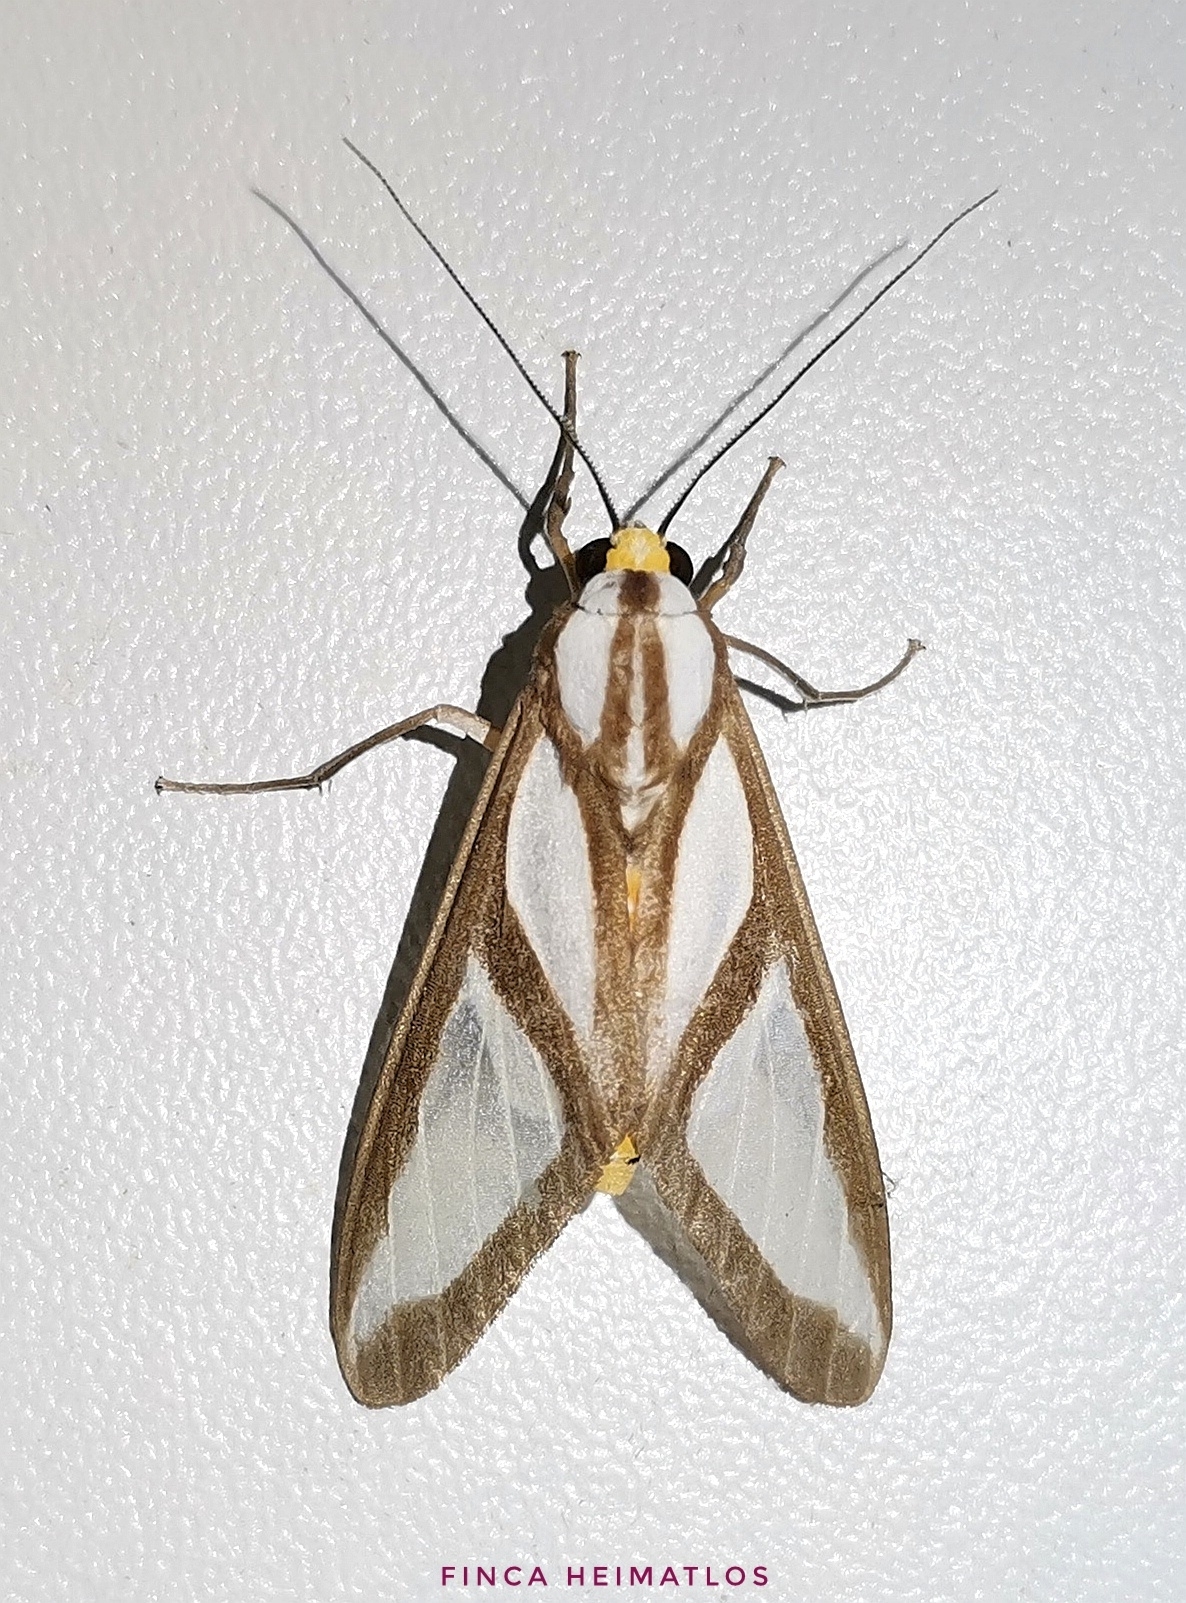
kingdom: Animalia
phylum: Arthropoda
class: Insecta
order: Lepidoptera
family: Erebidae
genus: Robinsonia
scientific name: Robinsonia dewitzi
